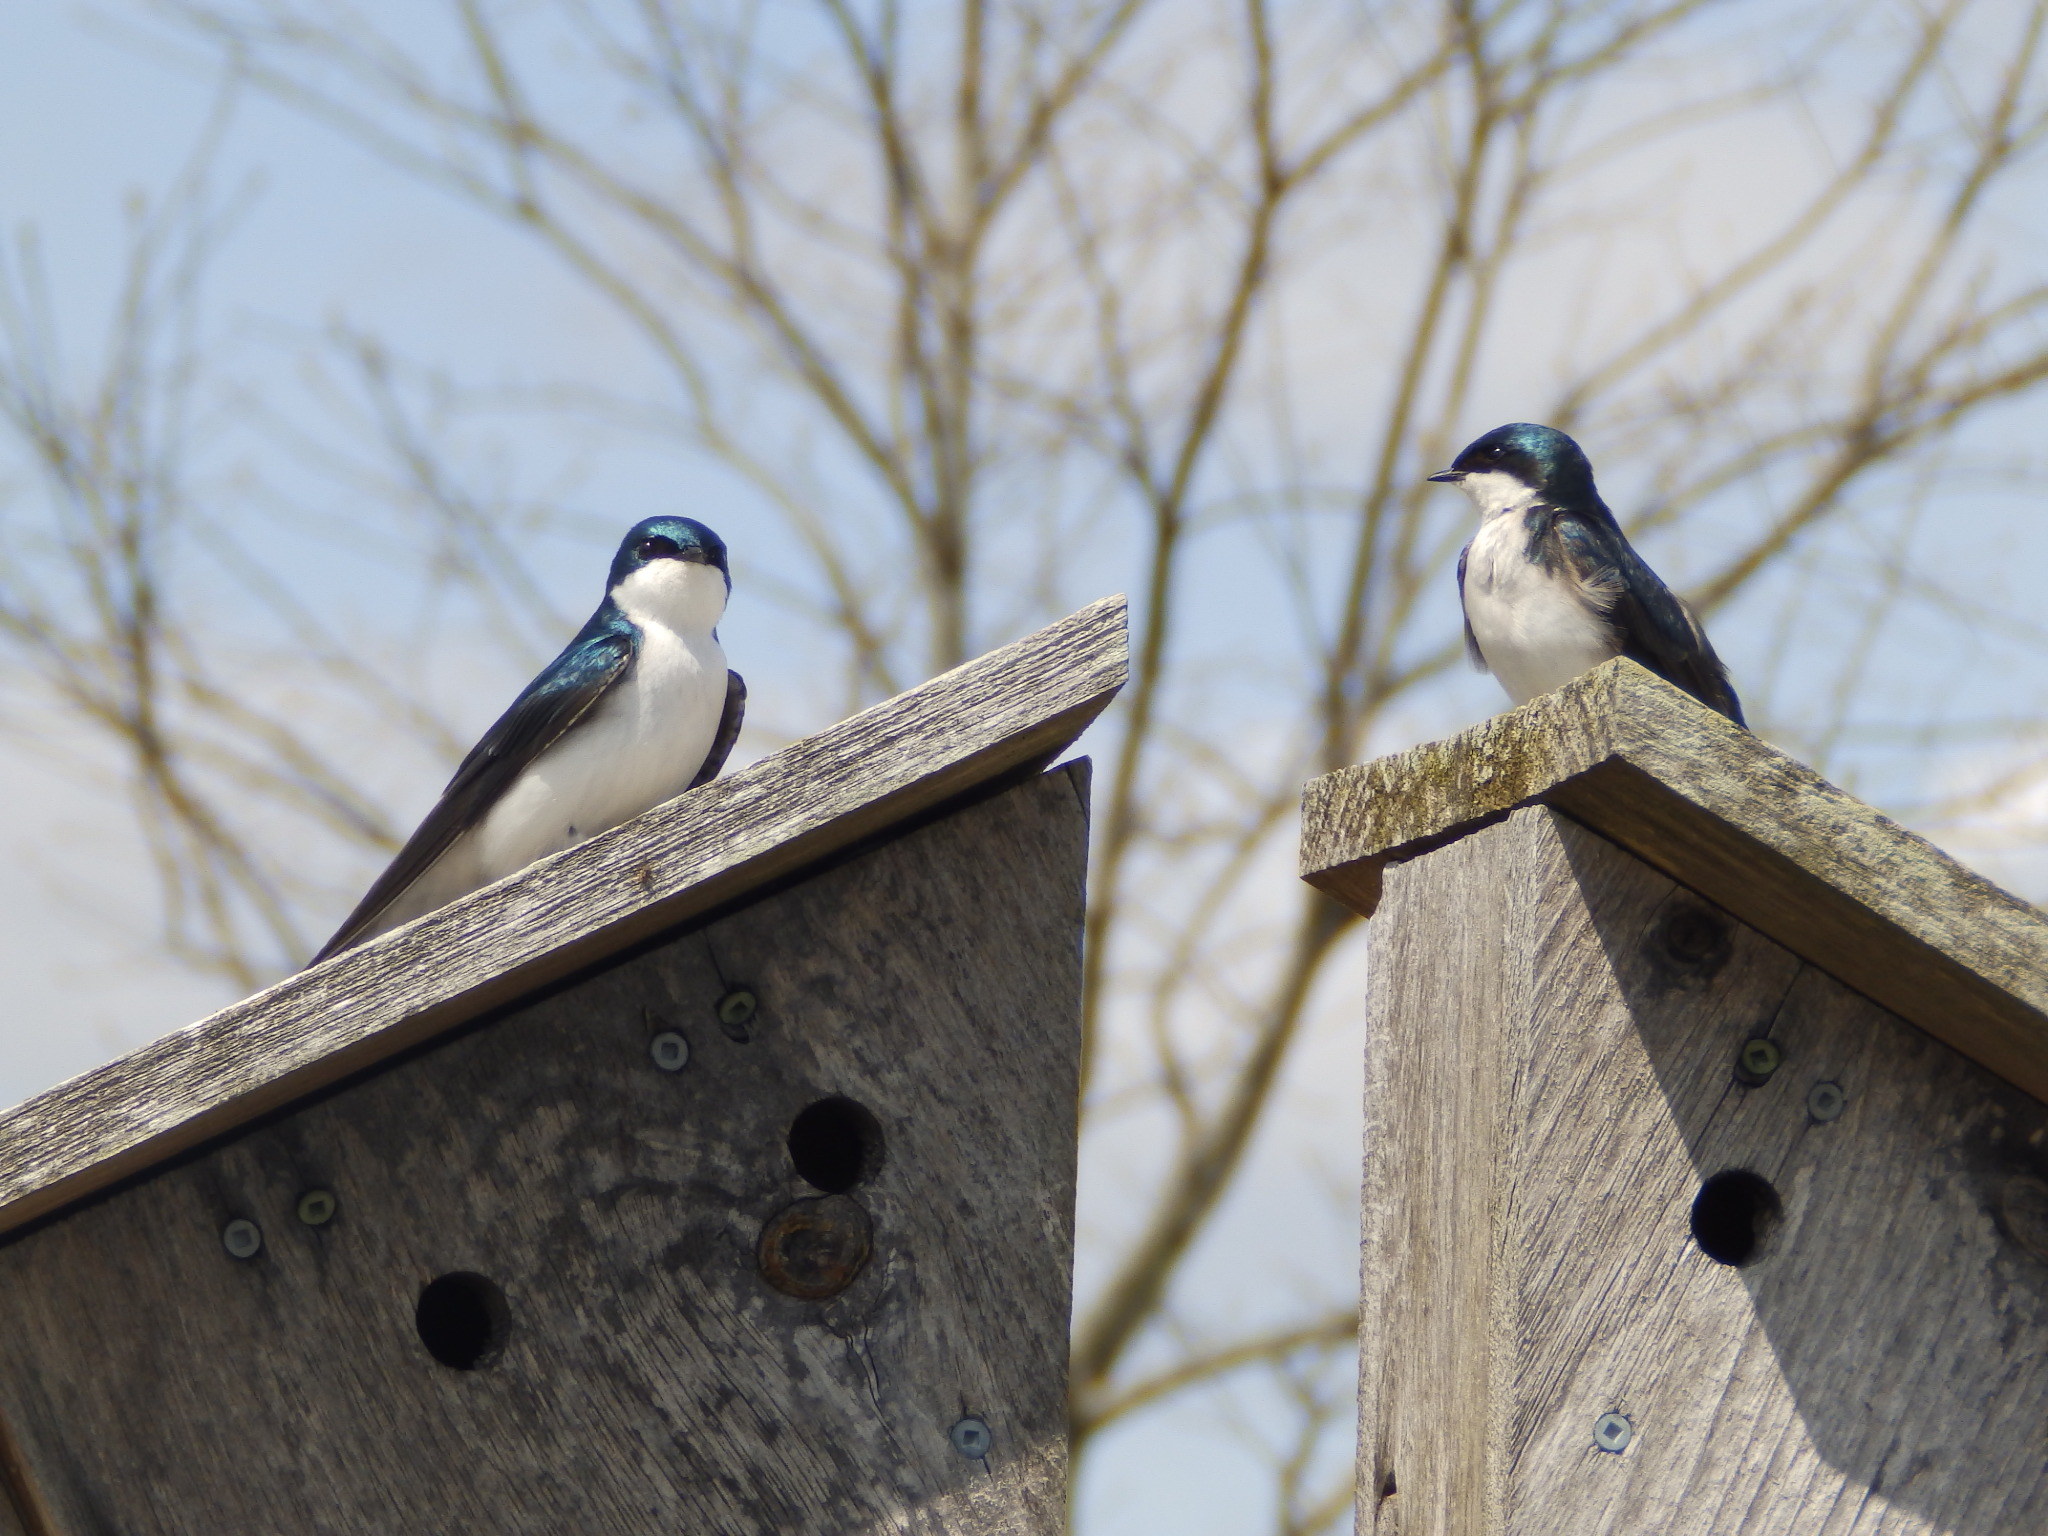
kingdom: Animalia
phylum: Chordata
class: Aves
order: Passeriformes
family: Hirundinidae
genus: Tachycineta
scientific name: Tachycineta bicolor
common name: Tree swallow
